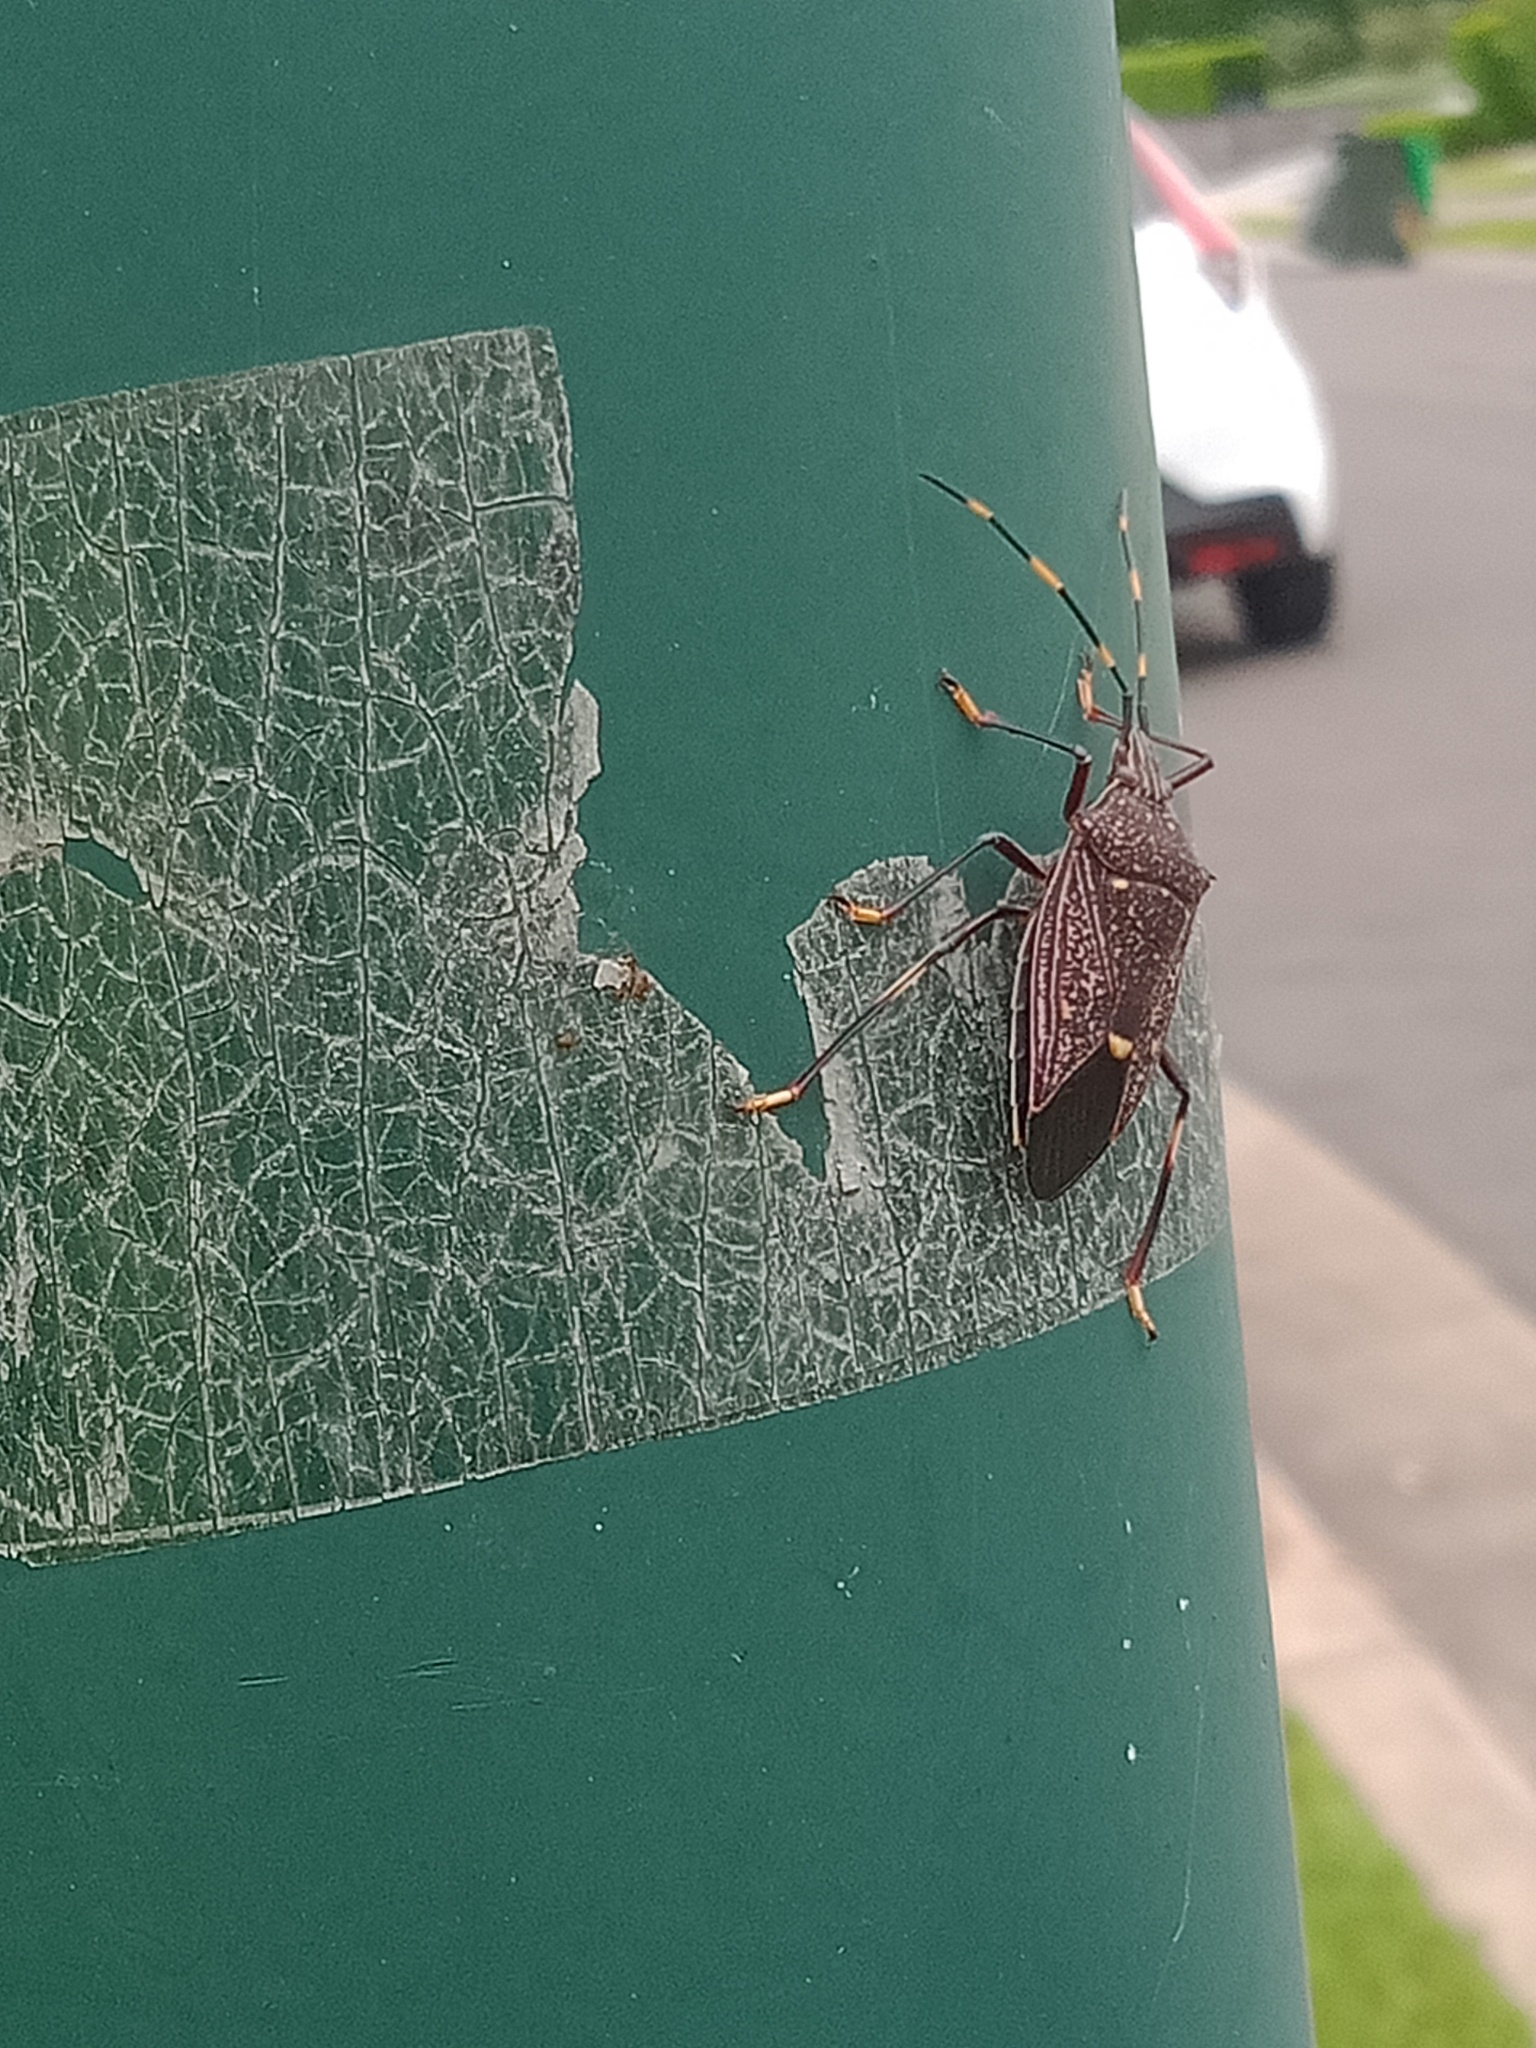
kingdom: Animalia
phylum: Arthropoda
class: Insecta
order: Hemiptera
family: Pentatomidae
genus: Poecilometis
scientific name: Poecilometis
